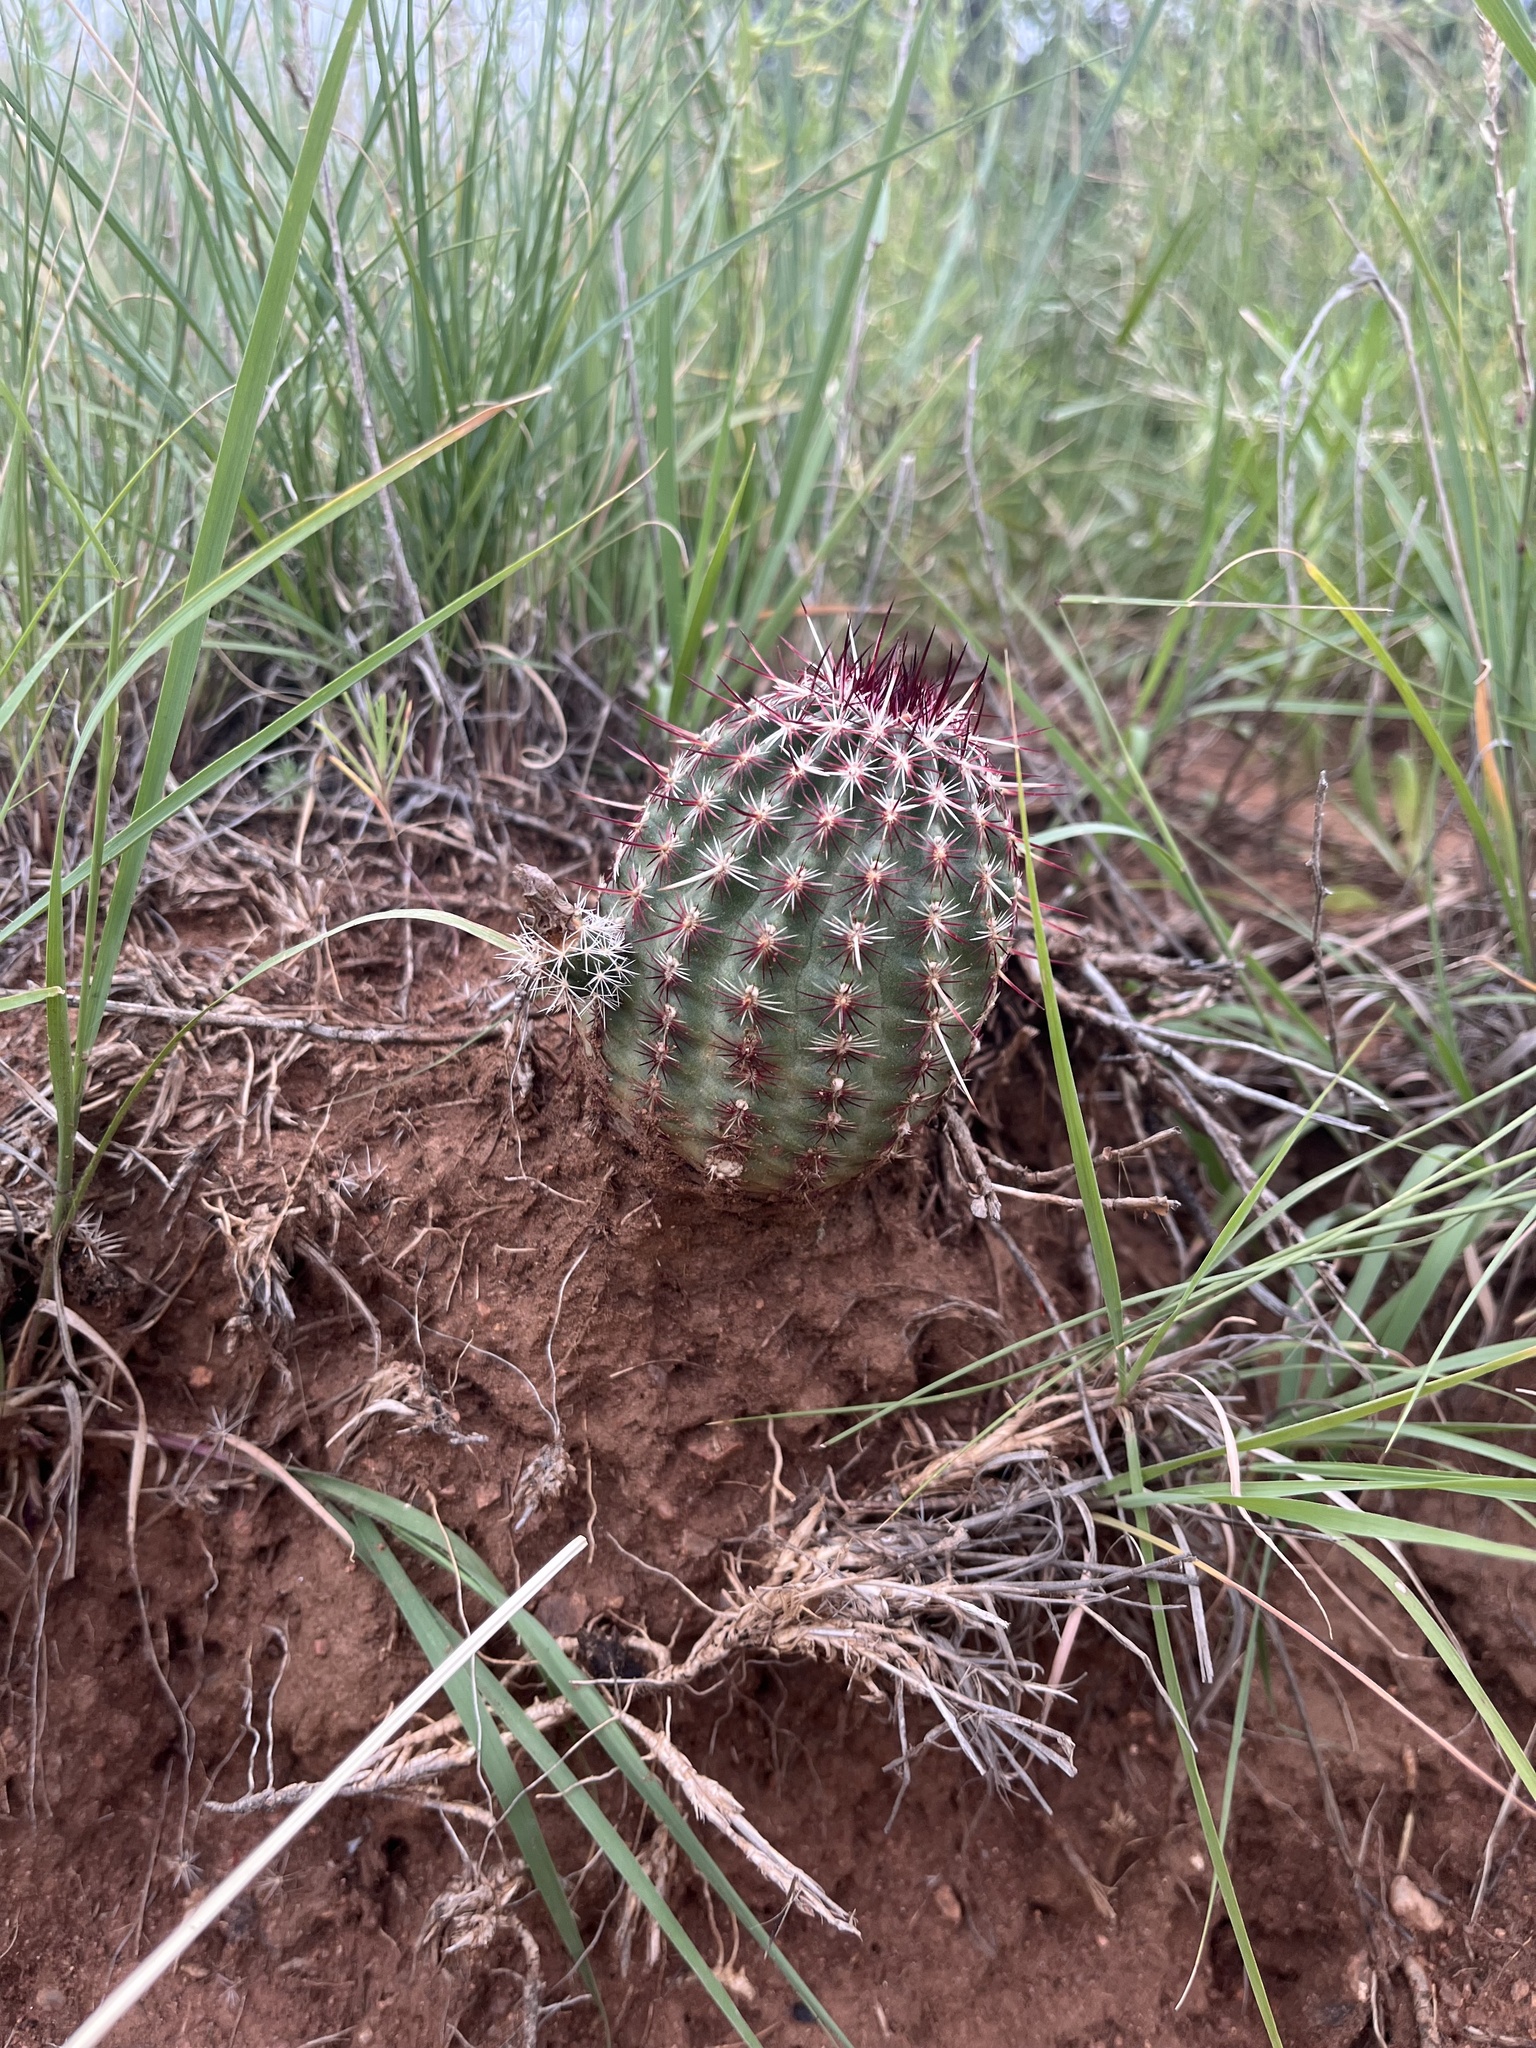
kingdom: Plantae
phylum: Tracheophyta
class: Magnoliopsida
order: Caryophyllales
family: Cactaceae
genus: Echinocereus
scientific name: Echinocereus viridiflorus
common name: Nylon hedgehog cactus
